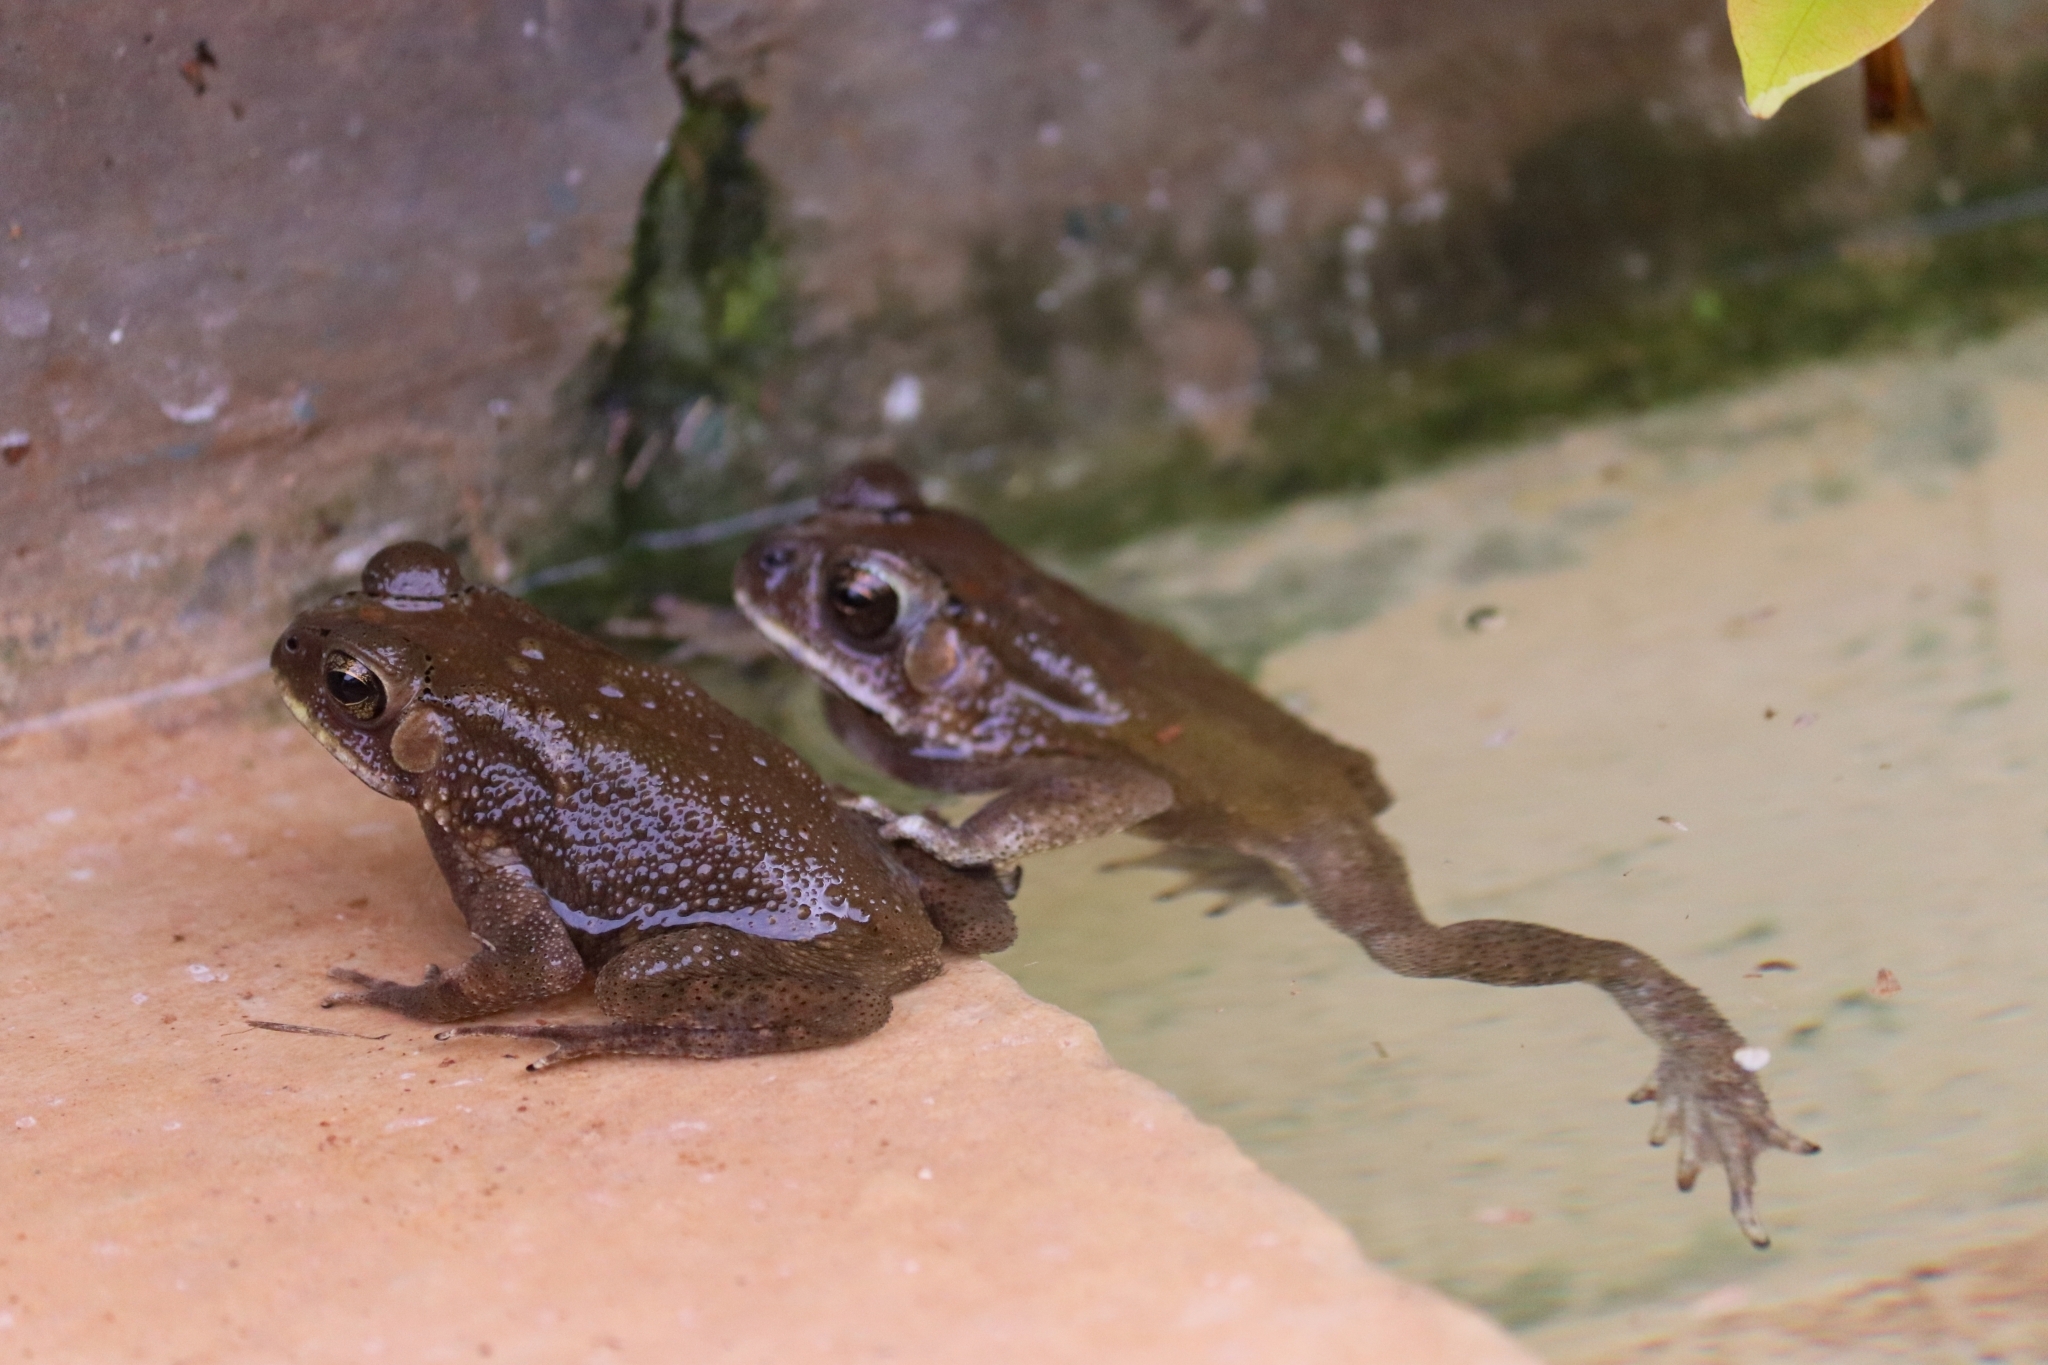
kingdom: Animalia
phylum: Chordata
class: Amphibia
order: Anura
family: Bufonidae
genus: Duttaphrynus
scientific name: Duttaphrynus melanostictus
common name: Common sunda toad
